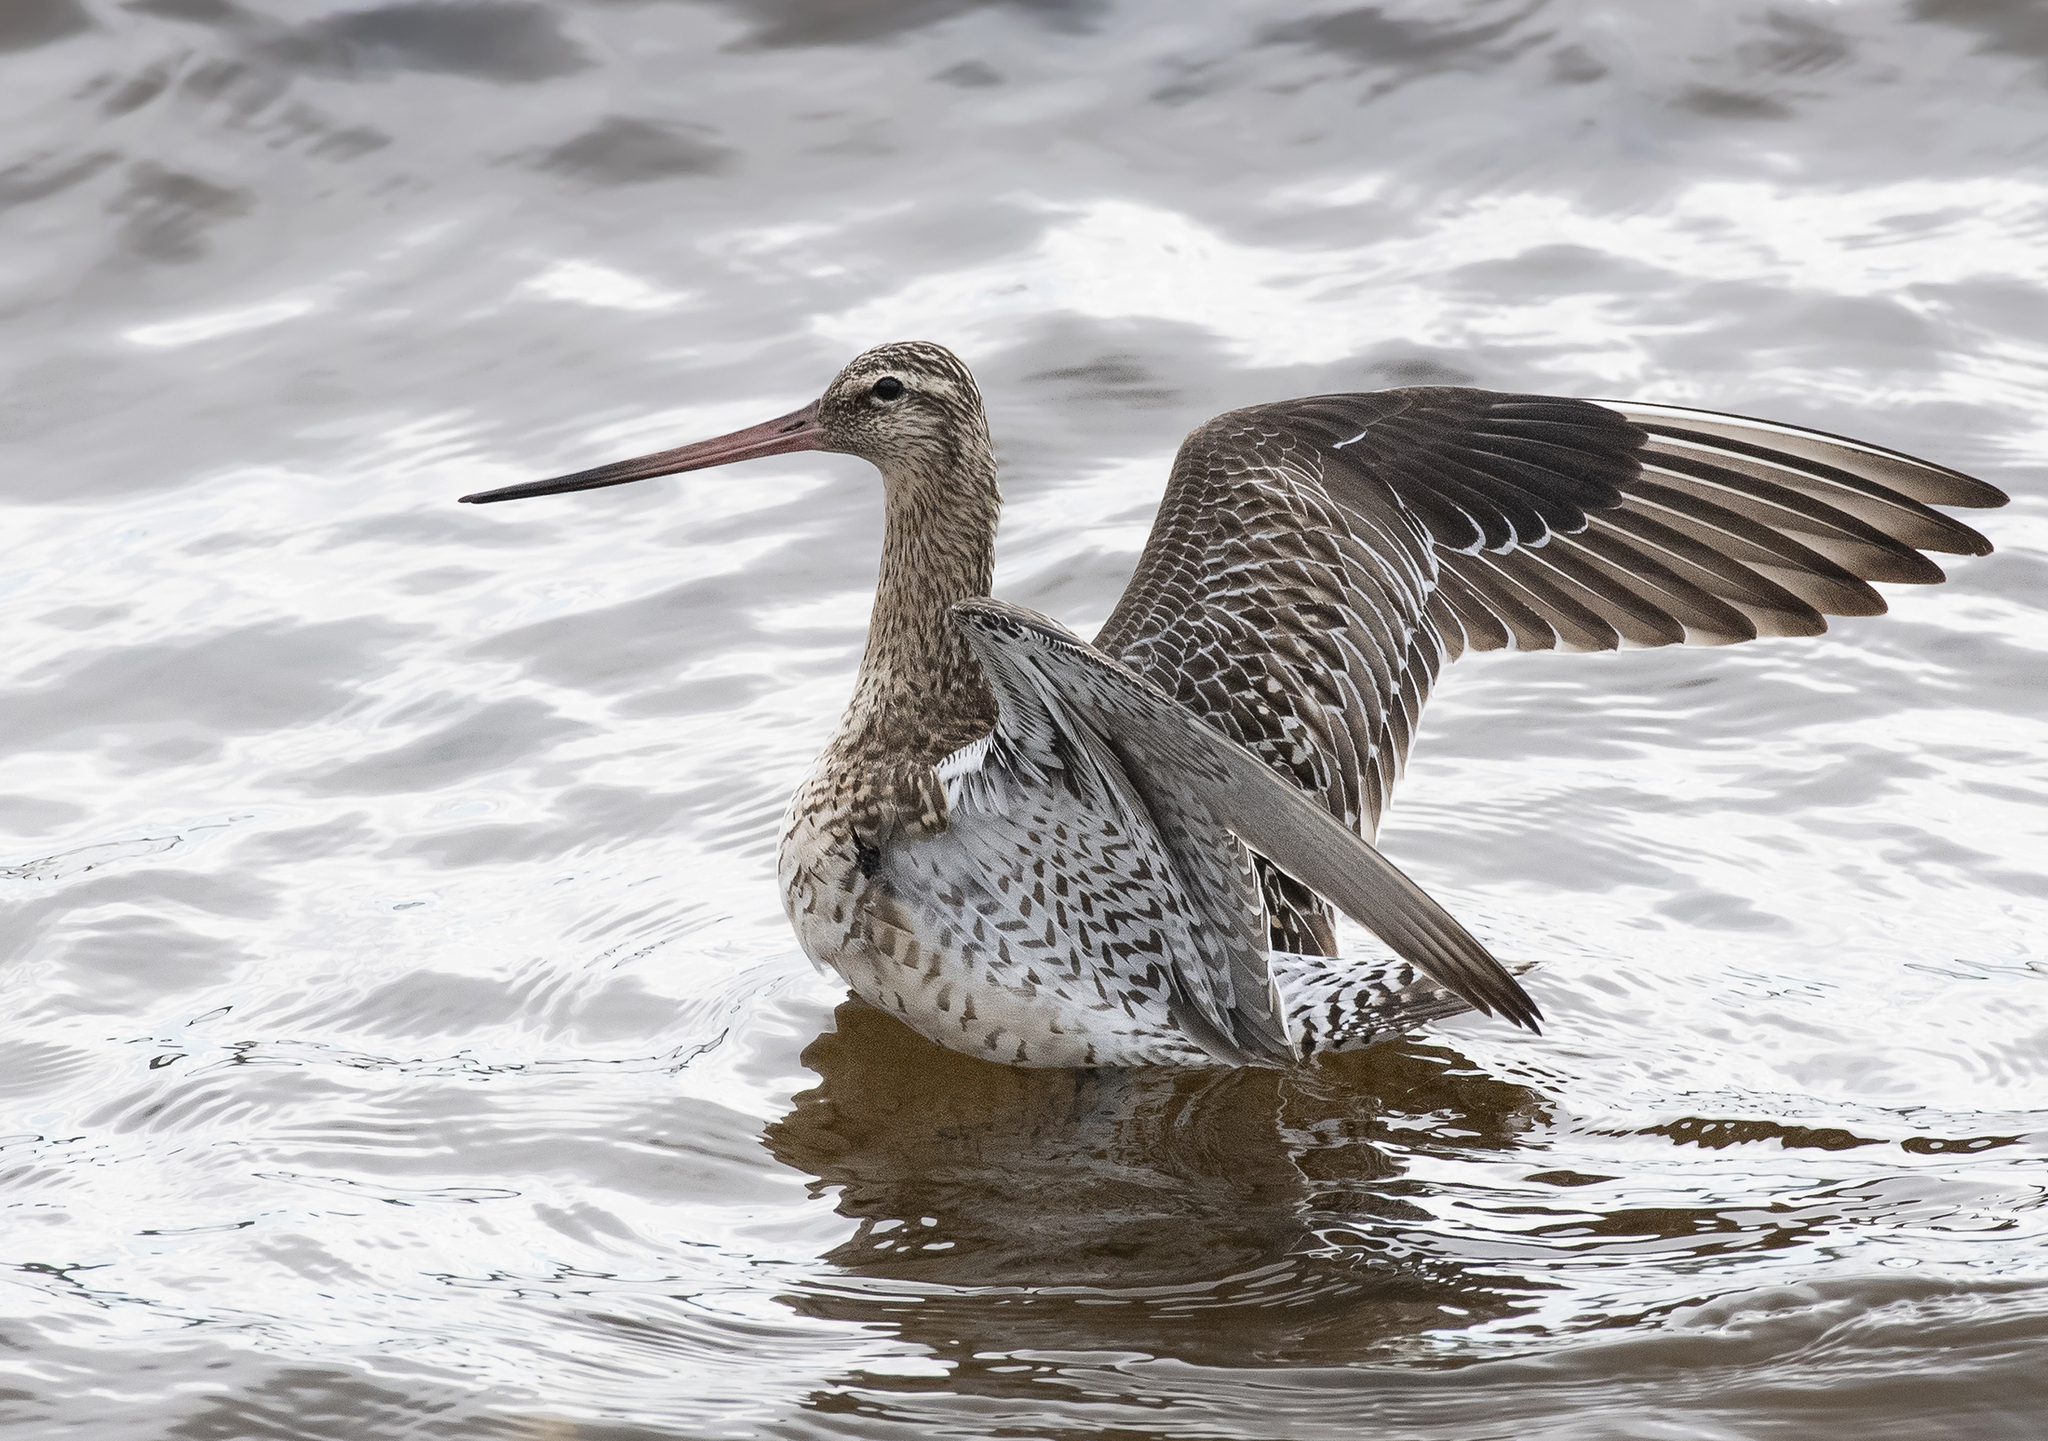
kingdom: Animalia
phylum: Chordata
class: Aves
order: Charadriiformes
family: Scolopacidae
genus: Limosa
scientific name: Limosa lapponica
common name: Bar-tailed godwit
